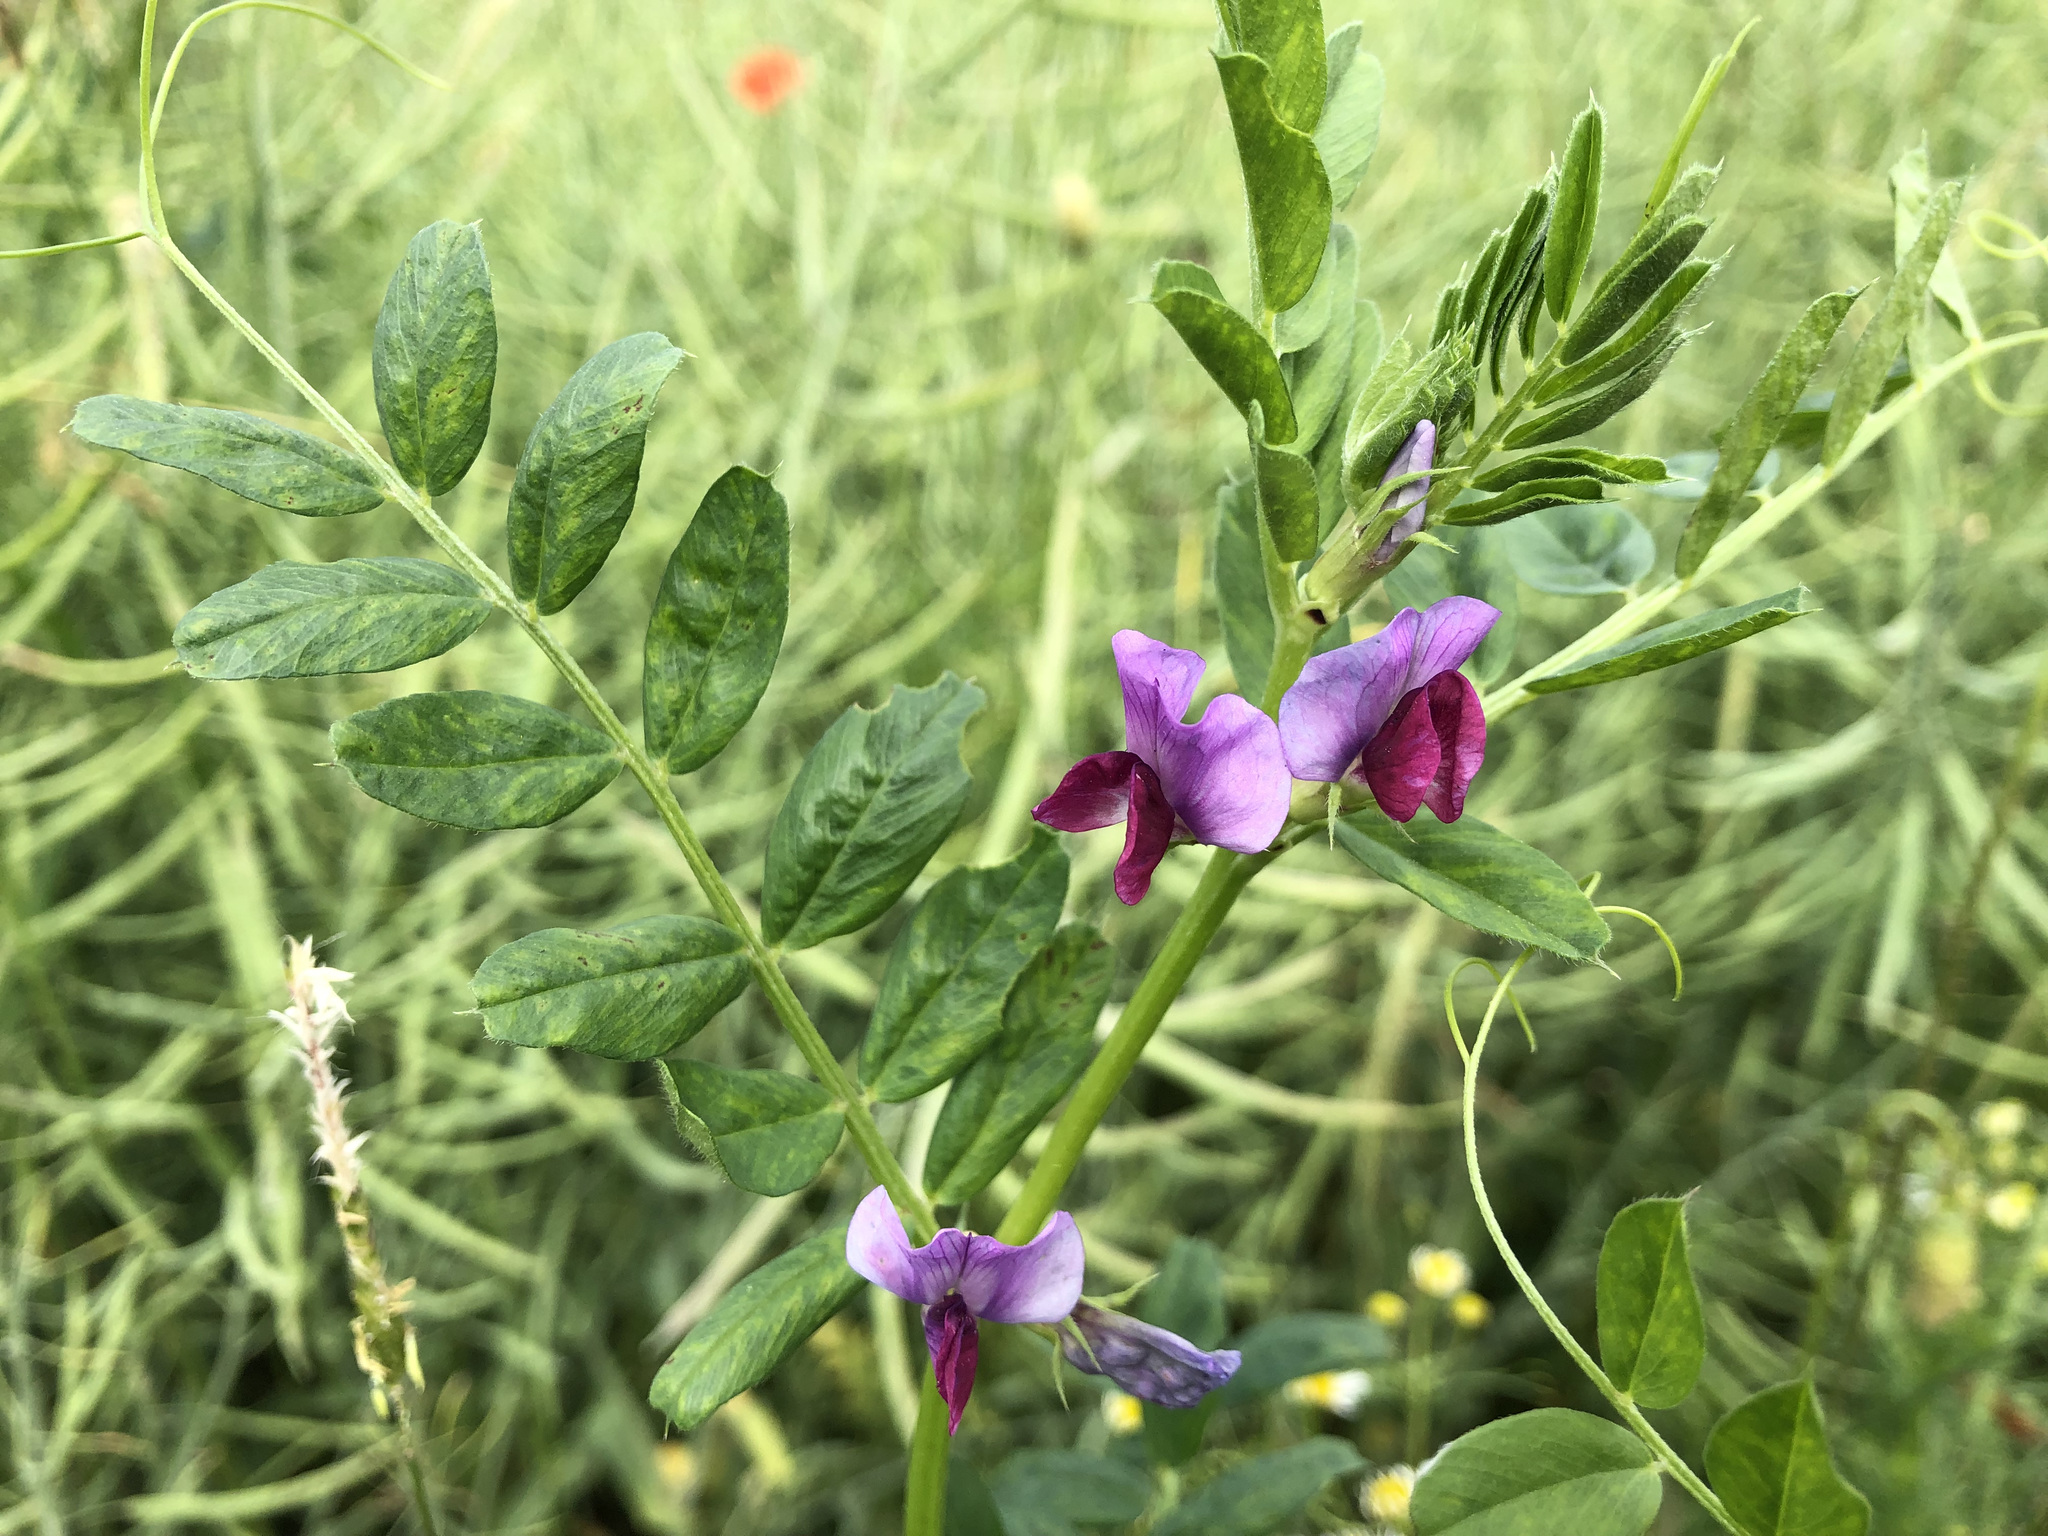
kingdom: Plantae
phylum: Tracheophyta
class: Magnoliopsida
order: Fabales
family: Fabaceae
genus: Vicia
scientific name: Vicia sativa
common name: Garden vetch
